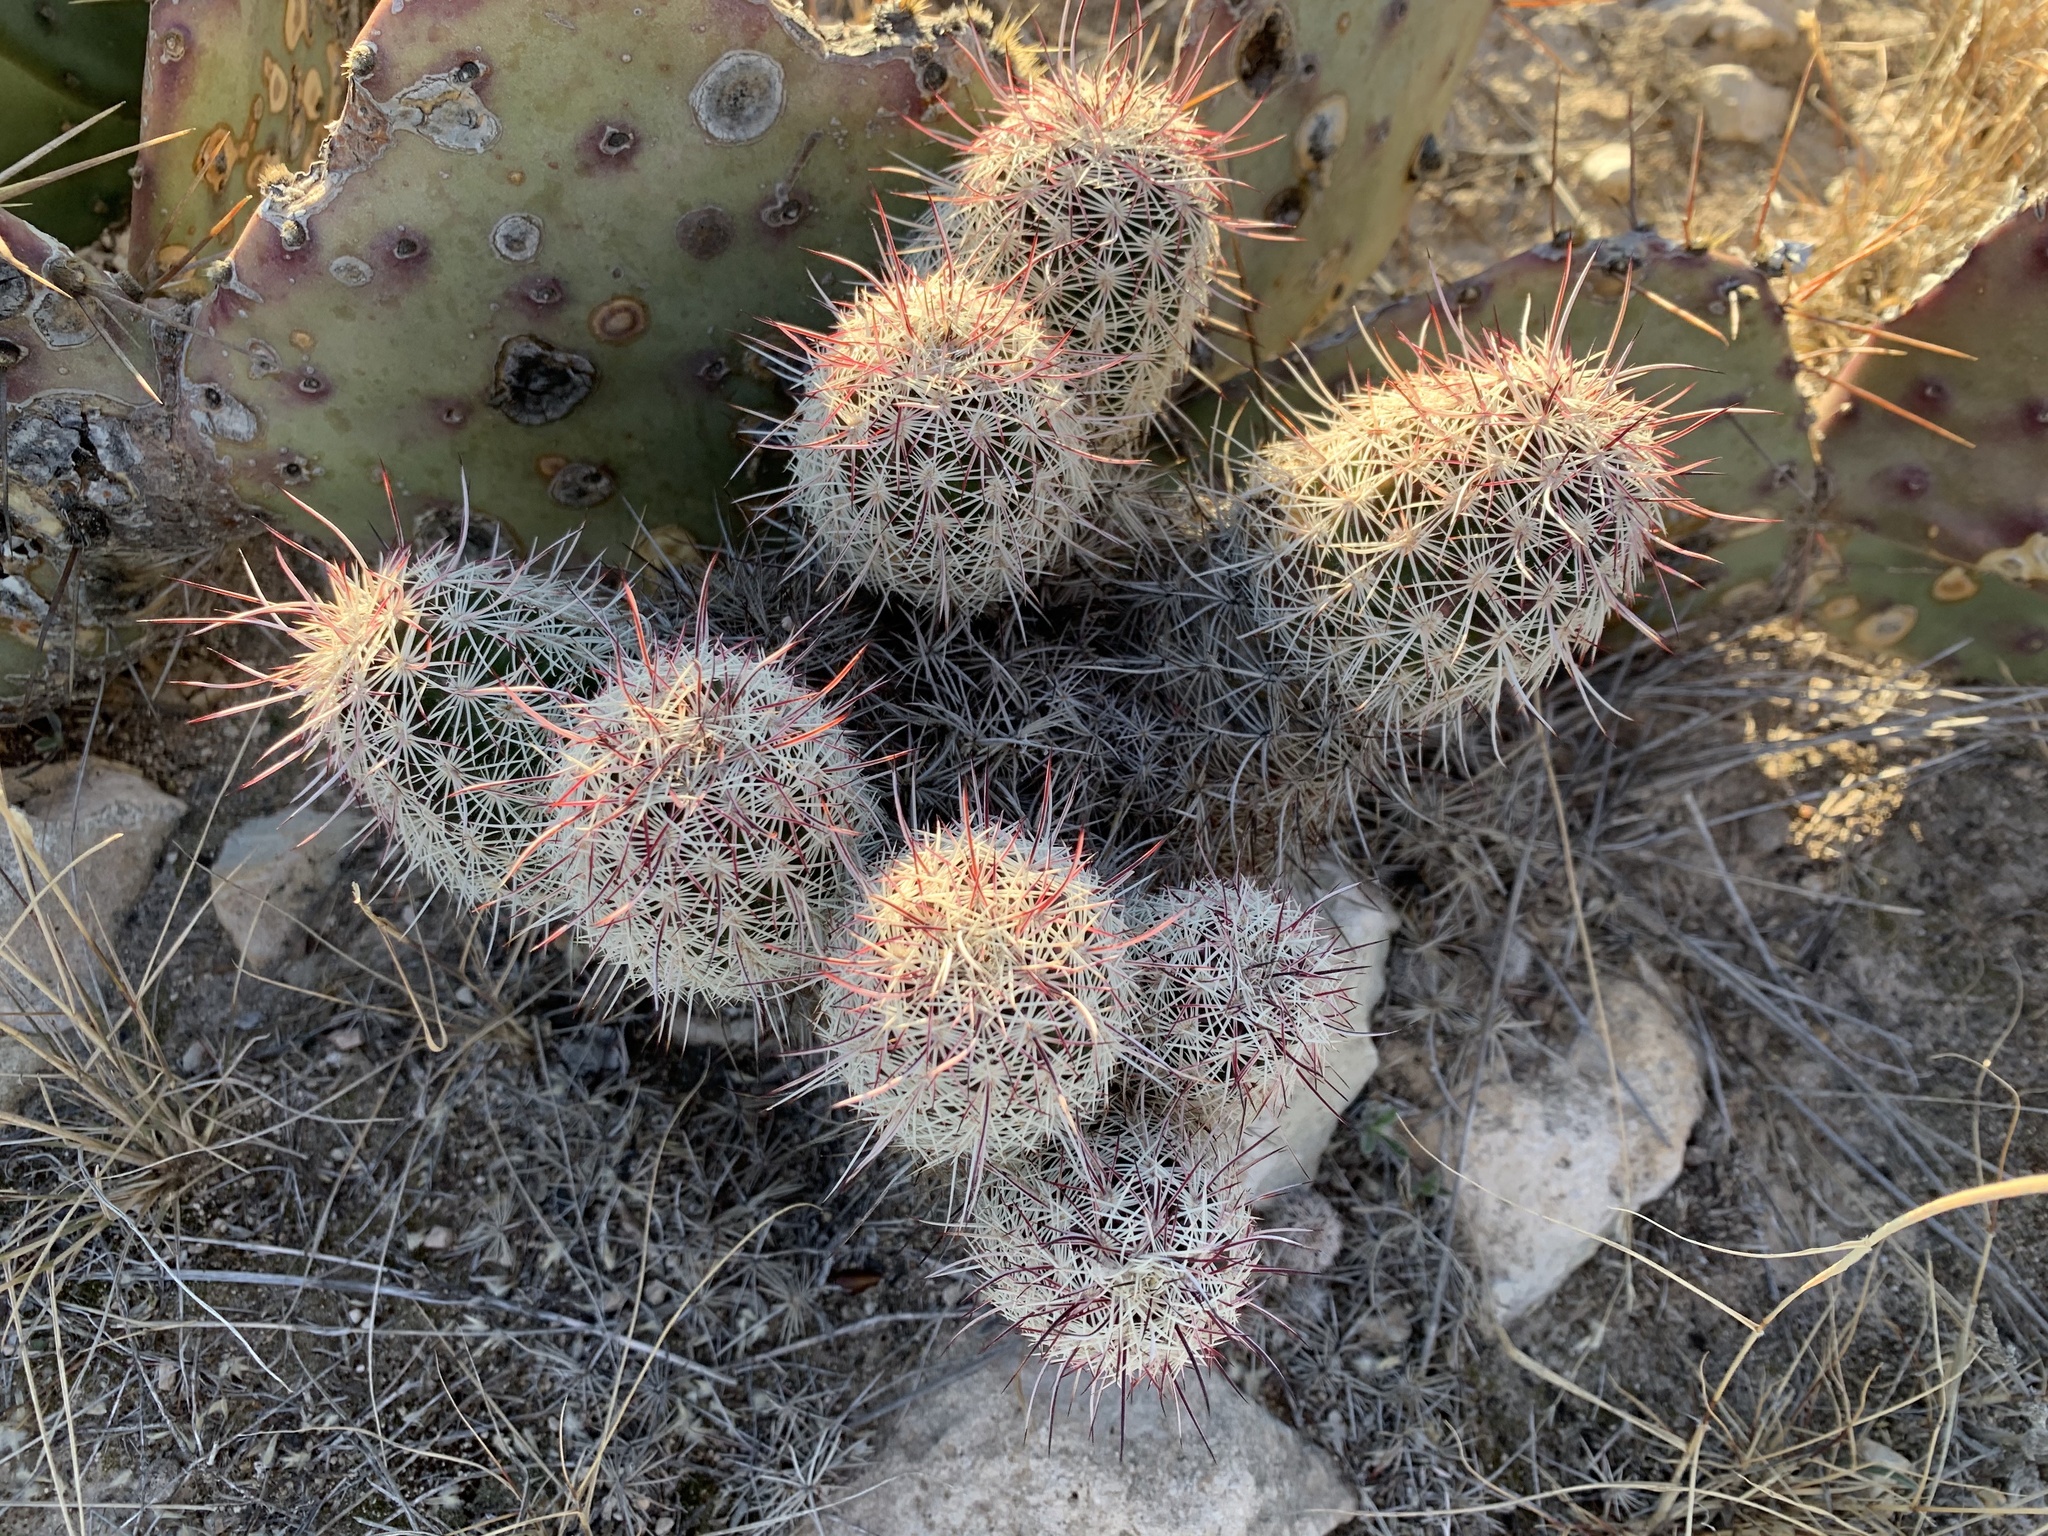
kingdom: Plantae
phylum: Tracheophyta
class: Magnoliopsida
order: Caryophyllales
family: Cactaceae
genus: Echinocereus
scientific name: Echinocereus viridiflorus
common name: Nylon hedgehog cactus
